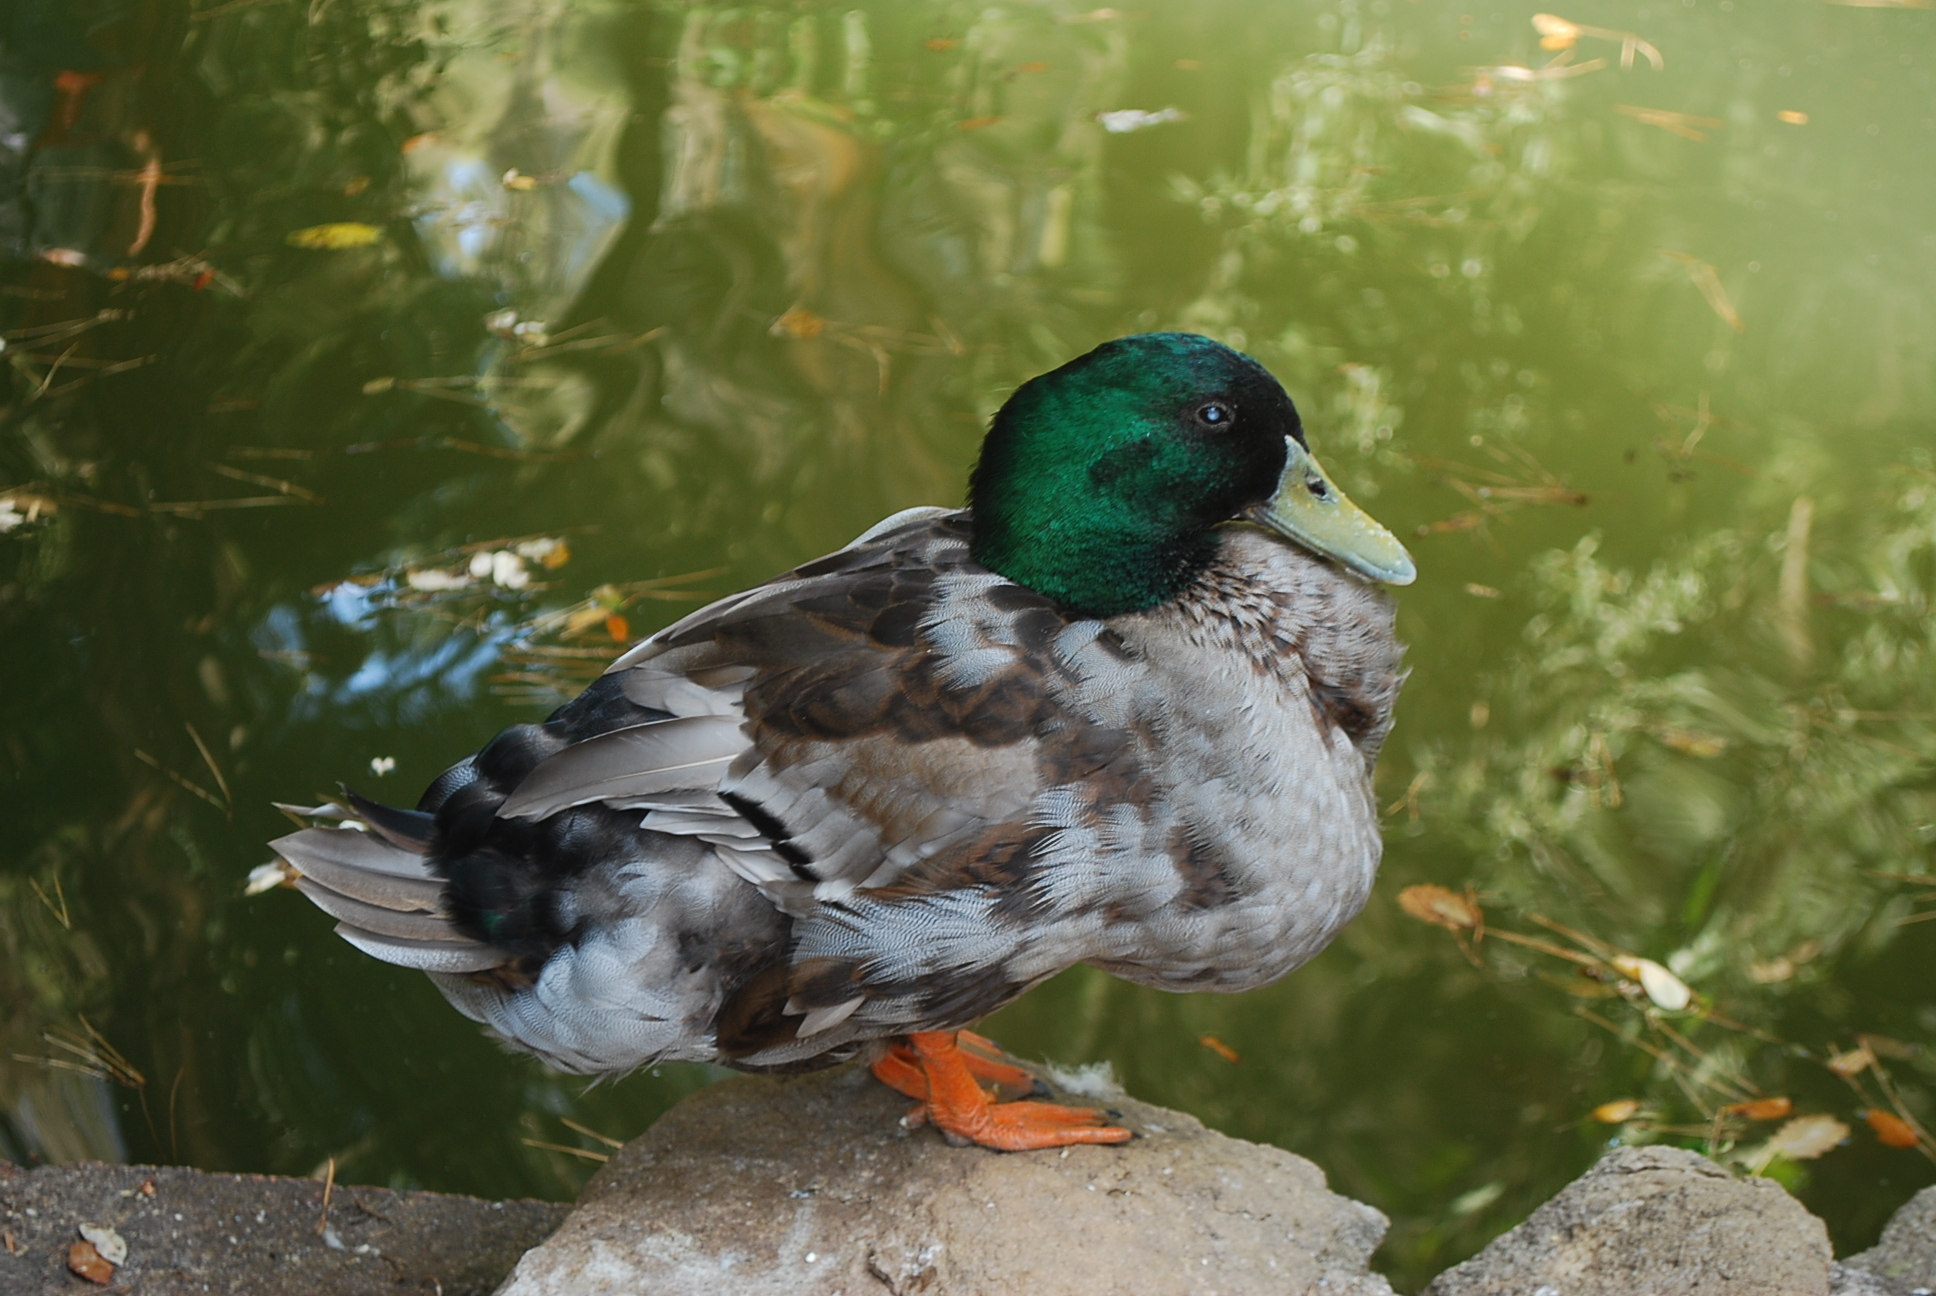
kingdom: Animalia
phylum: Chordata
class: Aves
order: Anseriformes
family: Anatidae
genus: Anas
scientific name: Anas platyrhynchos
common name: Mallard
